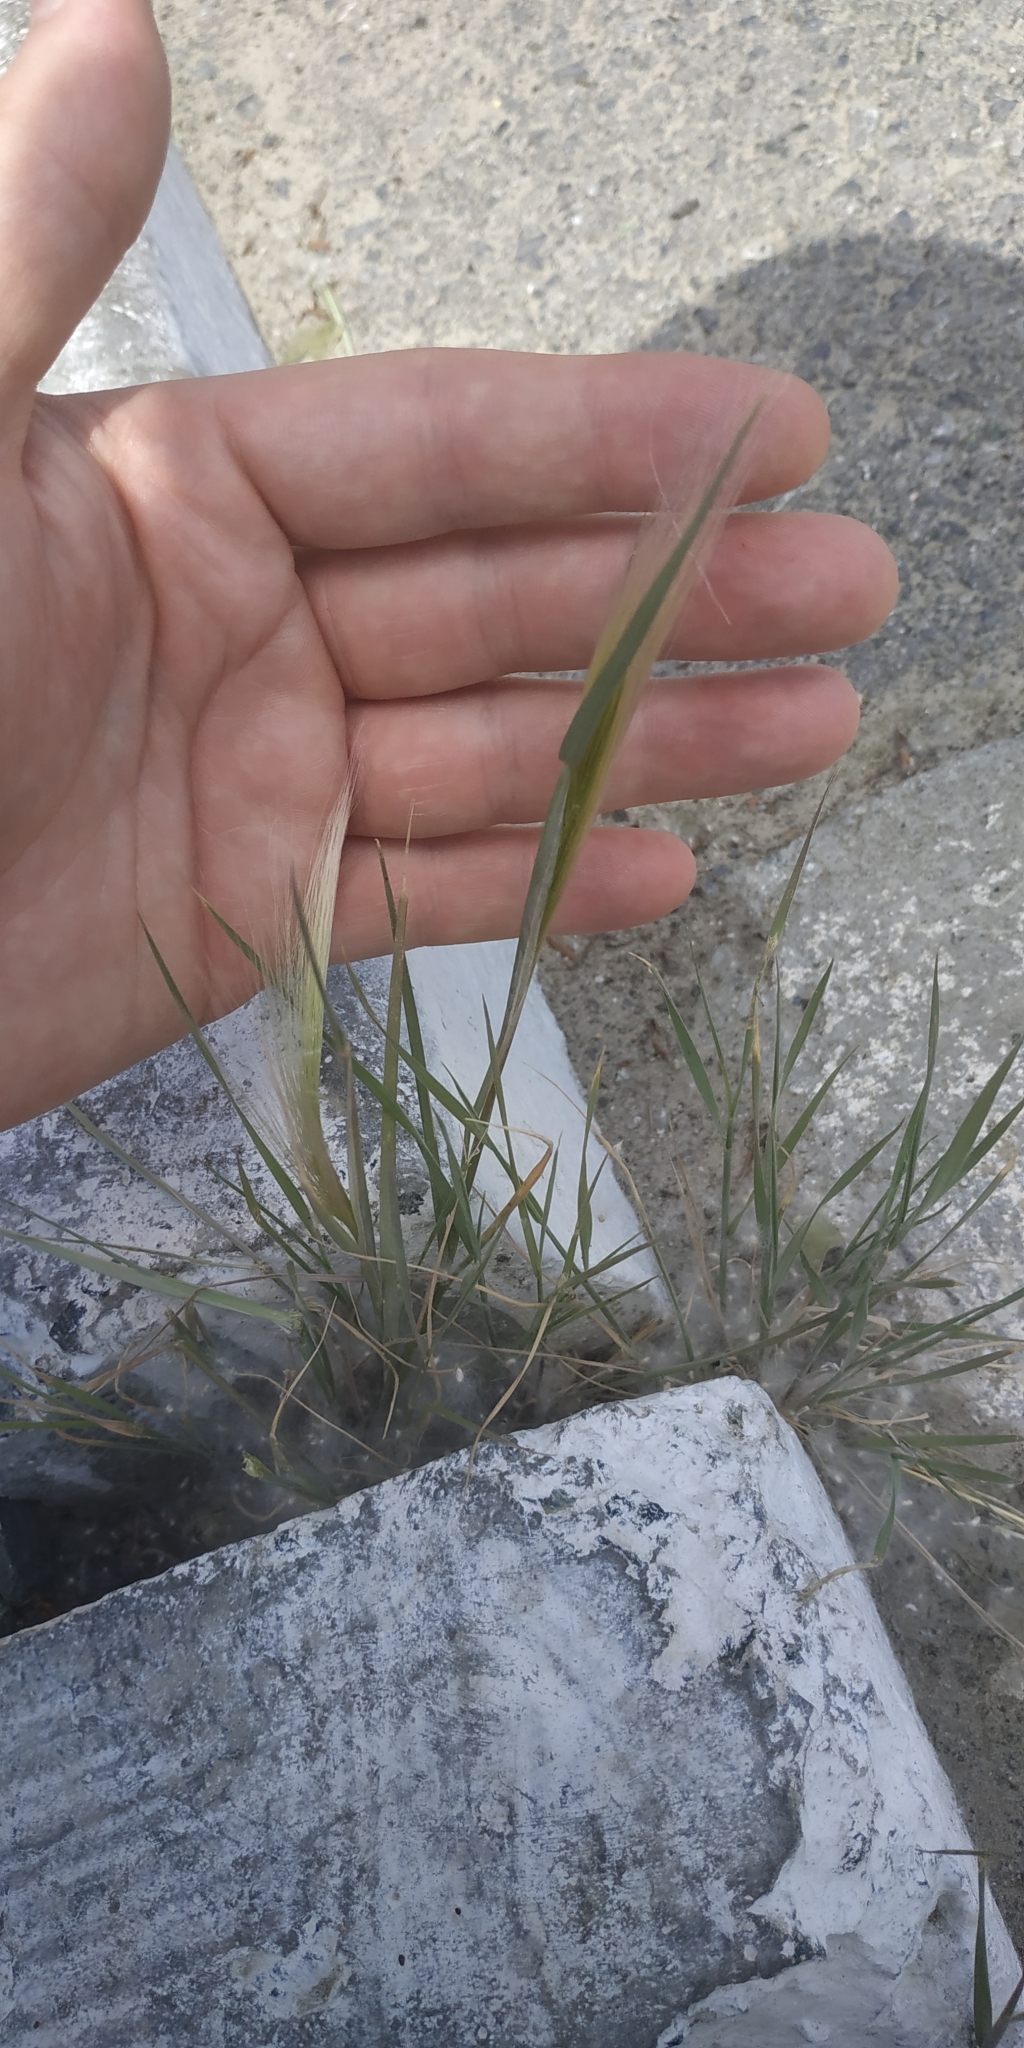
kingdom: Plantae
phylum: Tracheophyta
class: Liliopsida
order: Poales
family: Poaceae
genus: Hordeum
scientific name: Hordeum jubatum
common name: Foxtail barley
